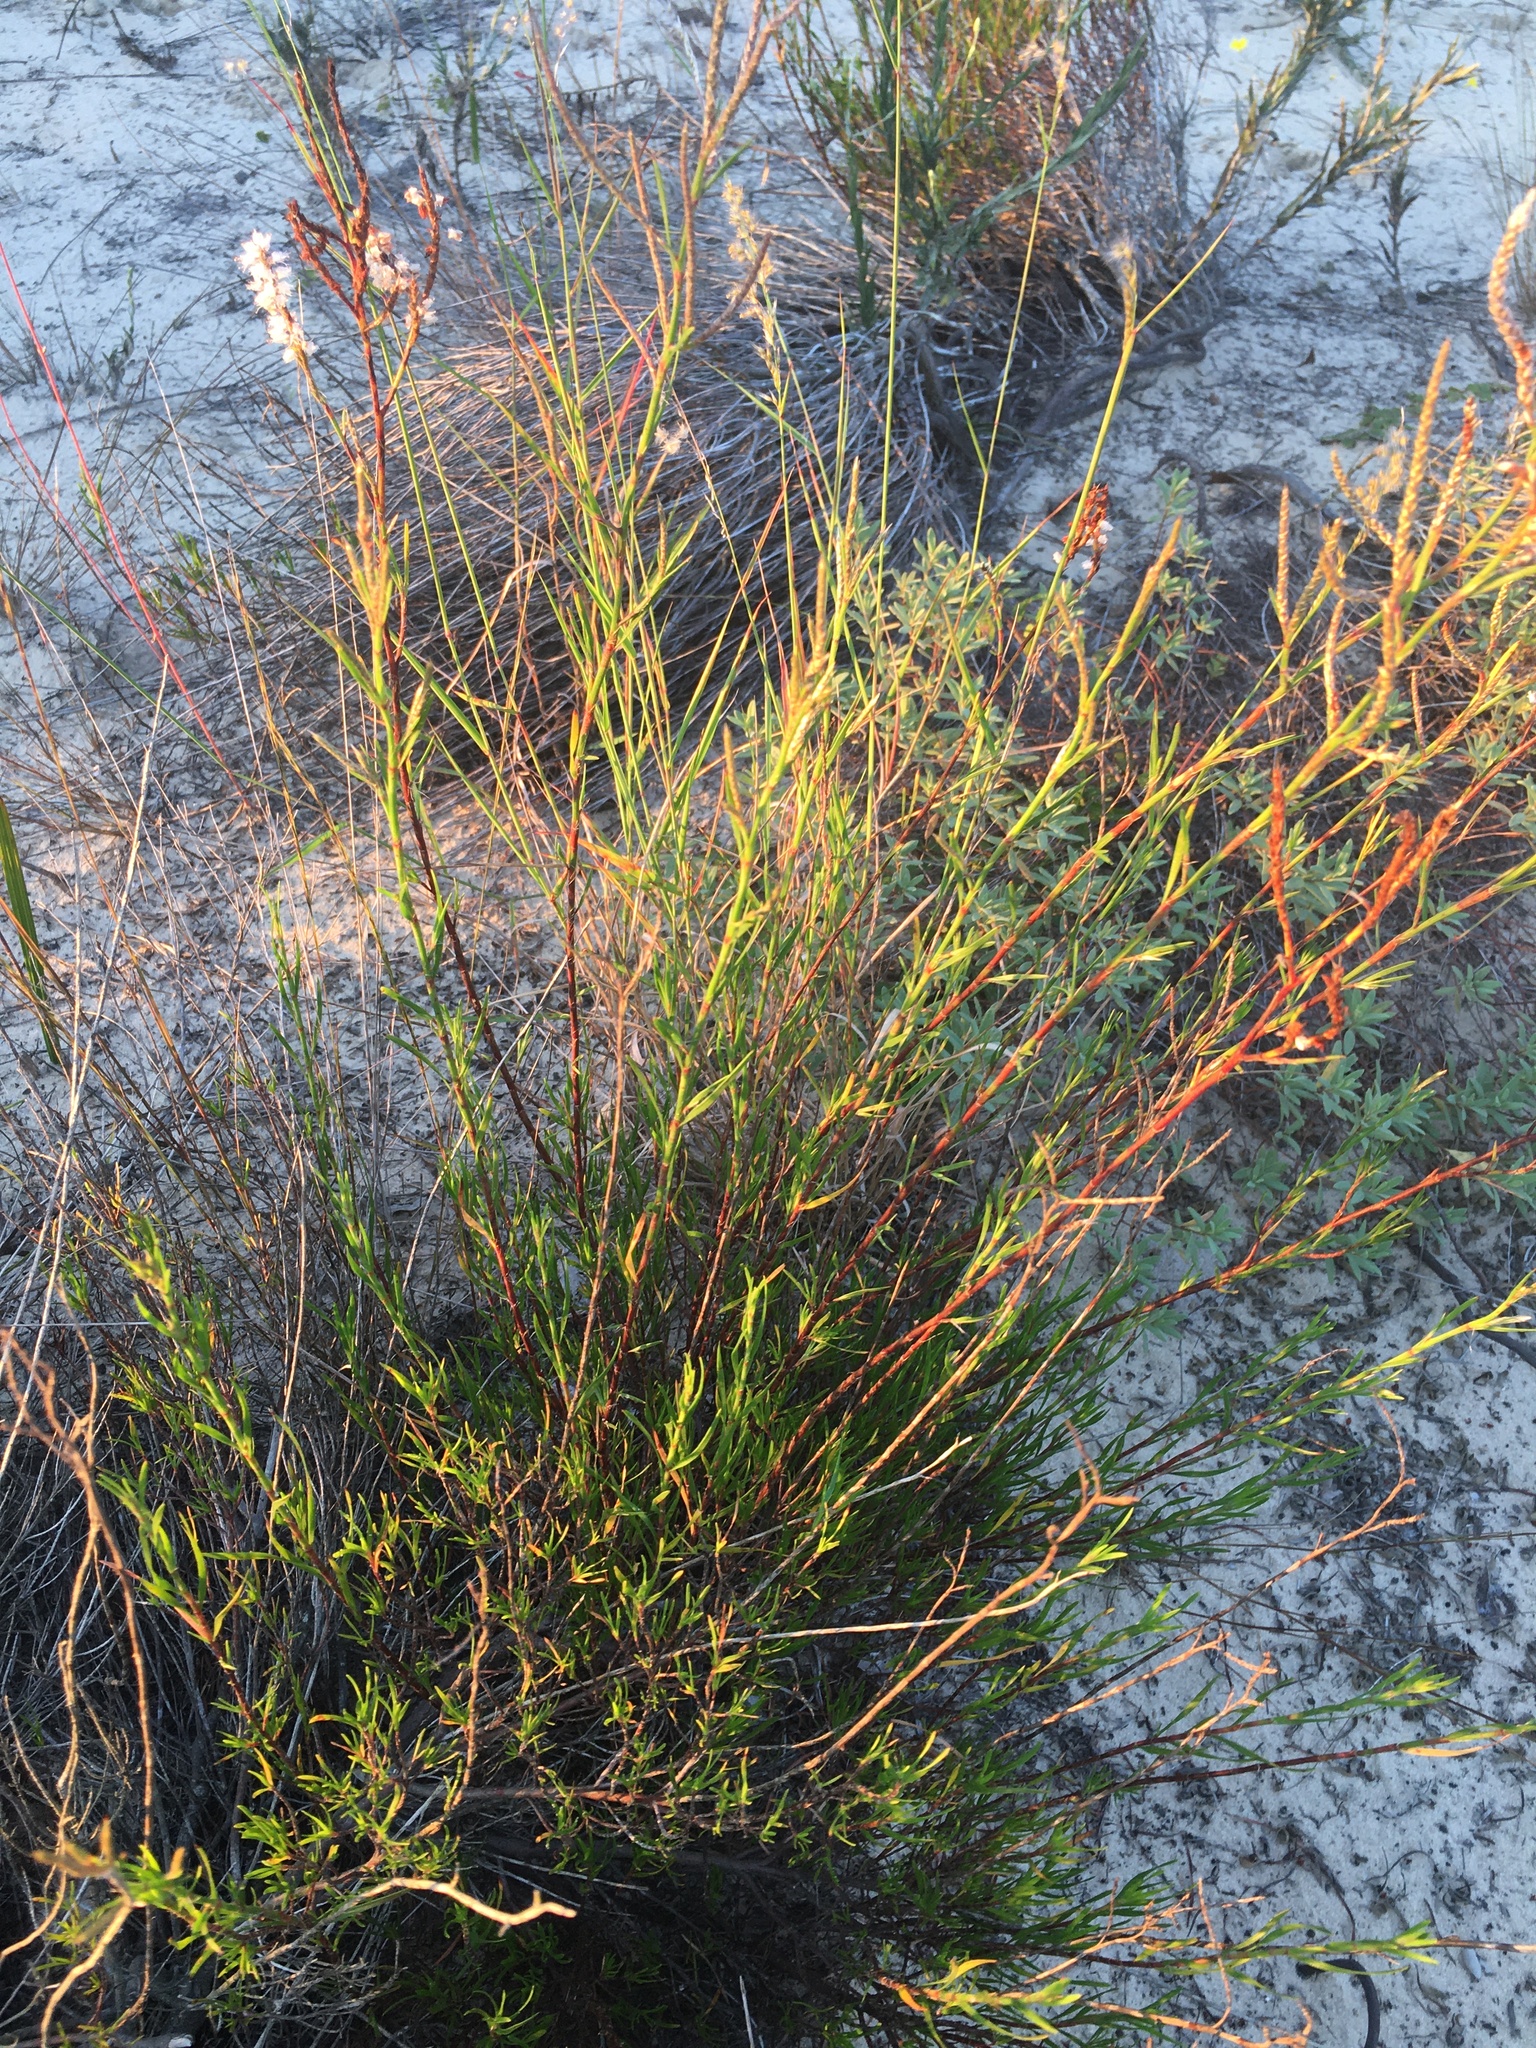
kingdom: Plantae
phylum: Tracheophyta
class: Magnoliopsida
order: Caryophyllales
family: Polygonaceae
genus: Polygonella
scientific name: Polygonella robusta
